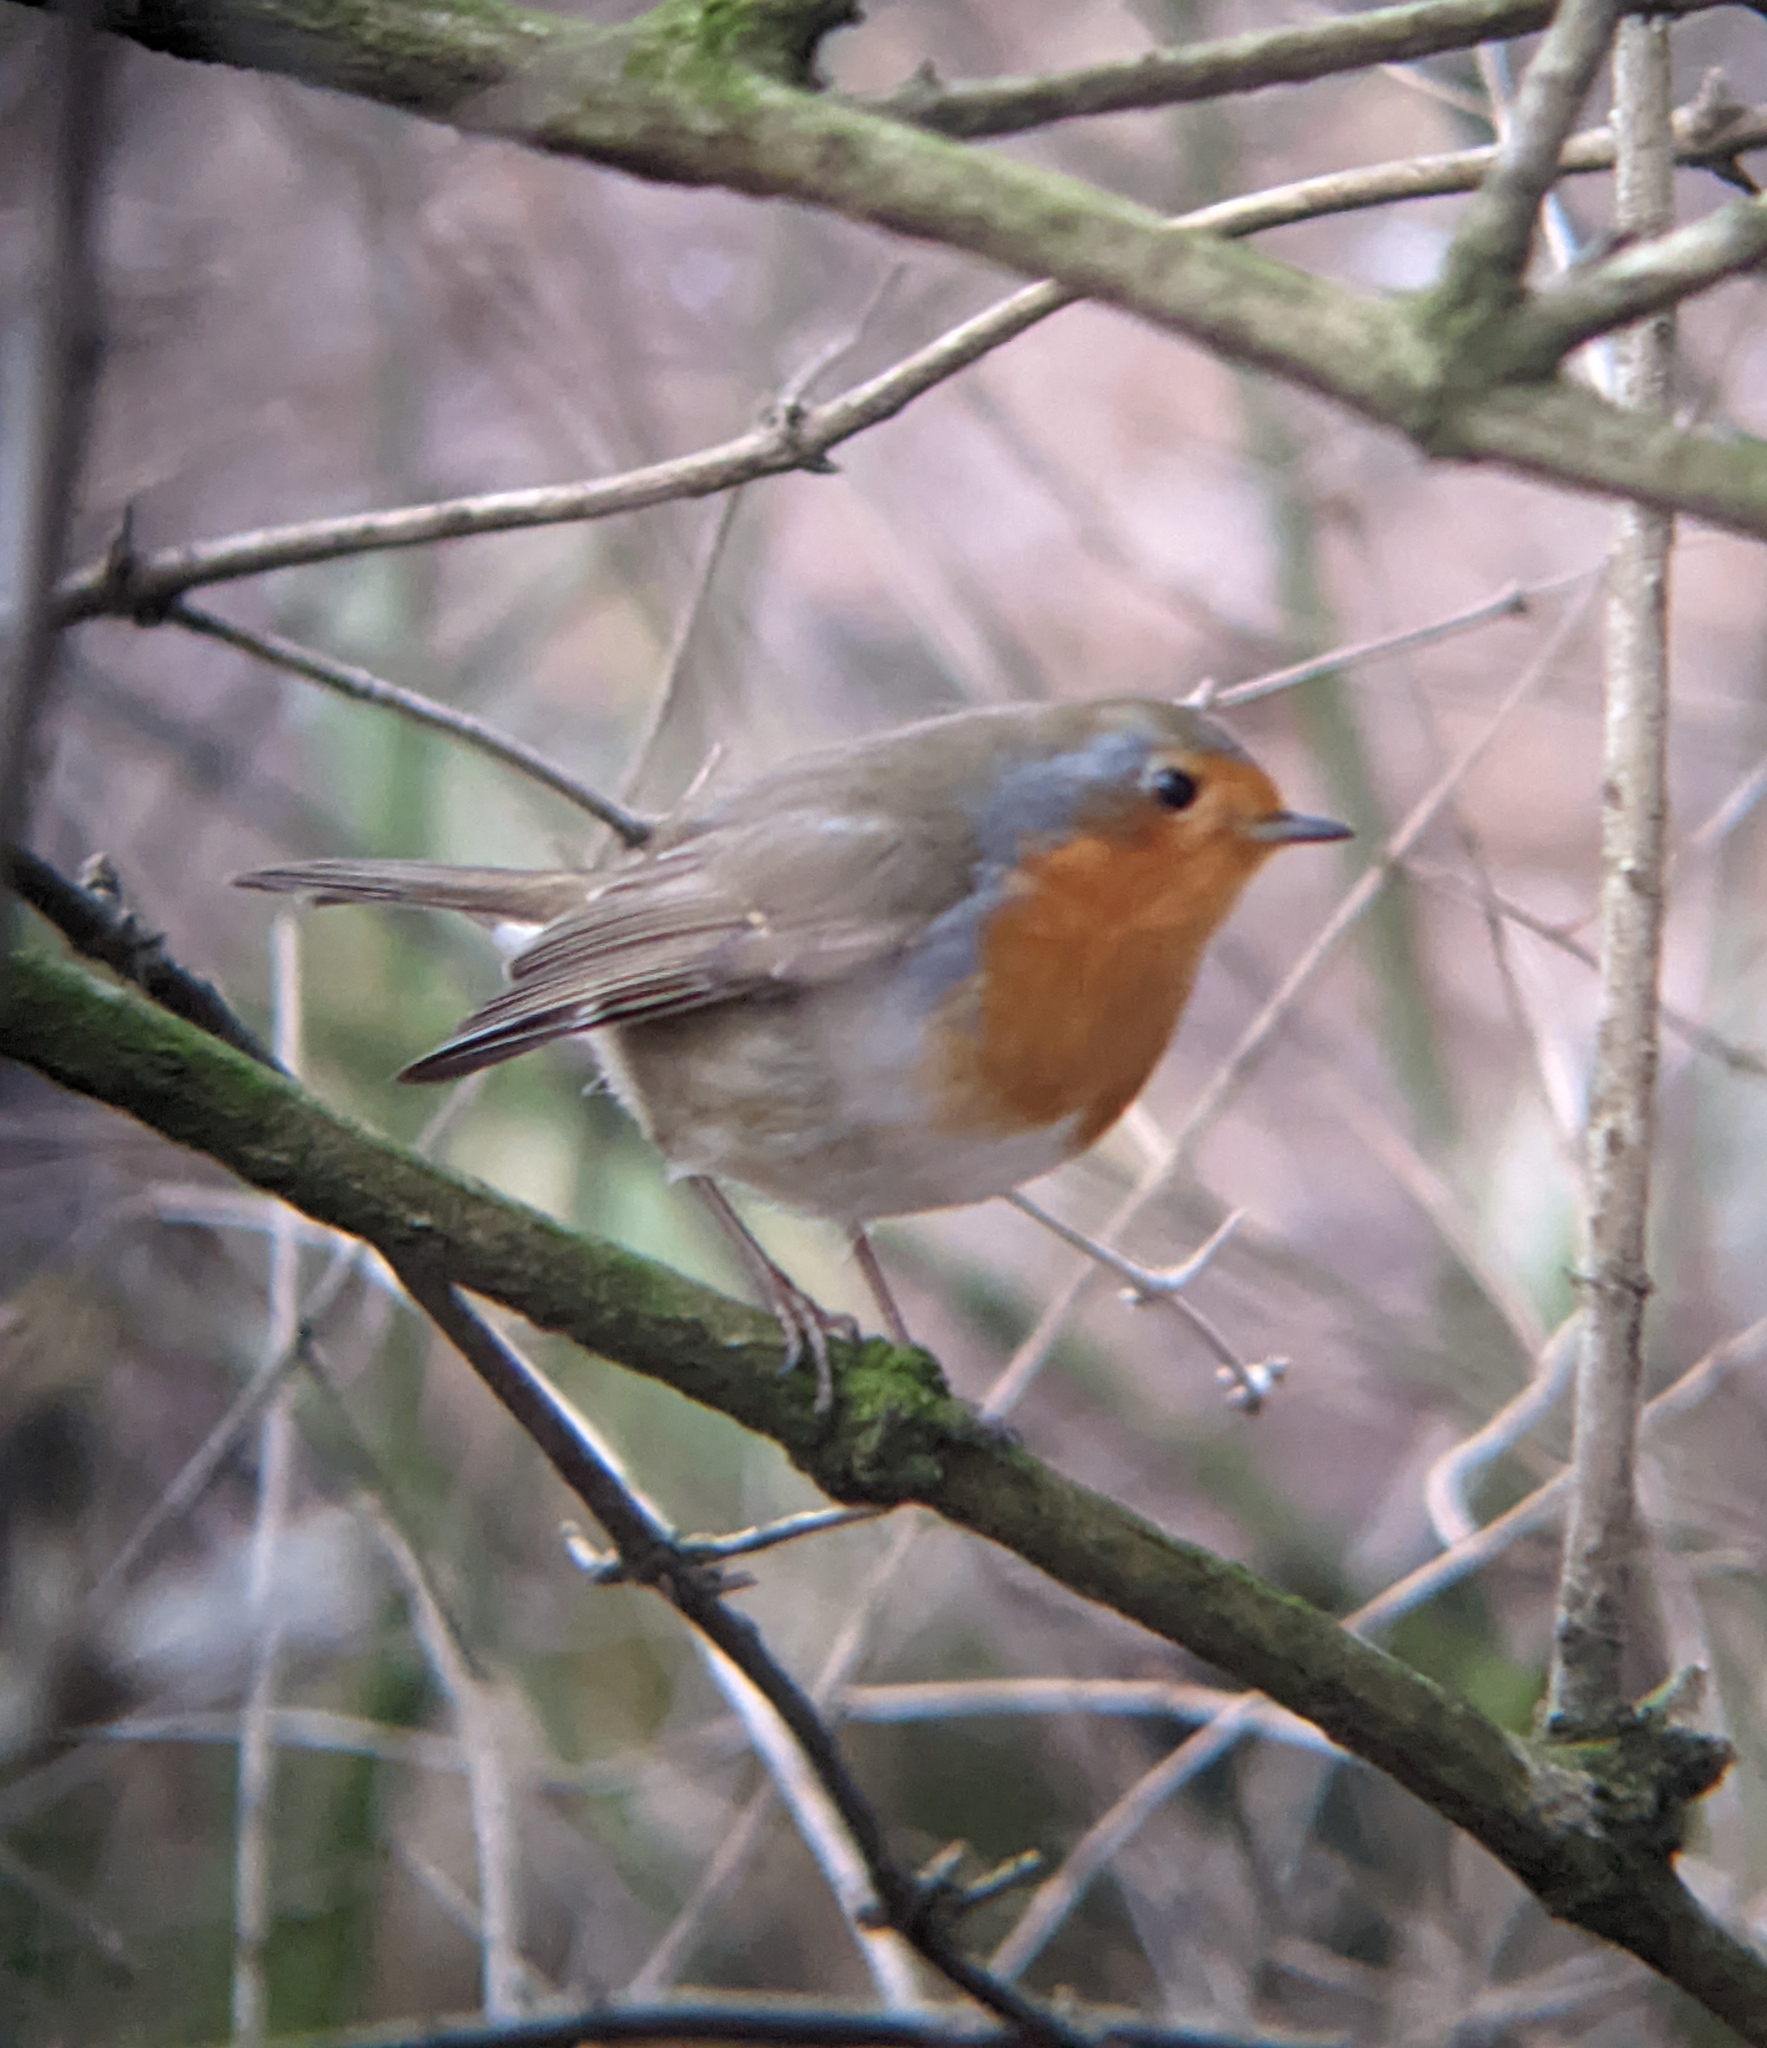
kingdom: Animalia
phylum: Chordata
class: Aves
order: Passeriformes
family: Muscicapidae
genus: Erithacus
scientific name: Erithacus rubecula
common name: European robin
